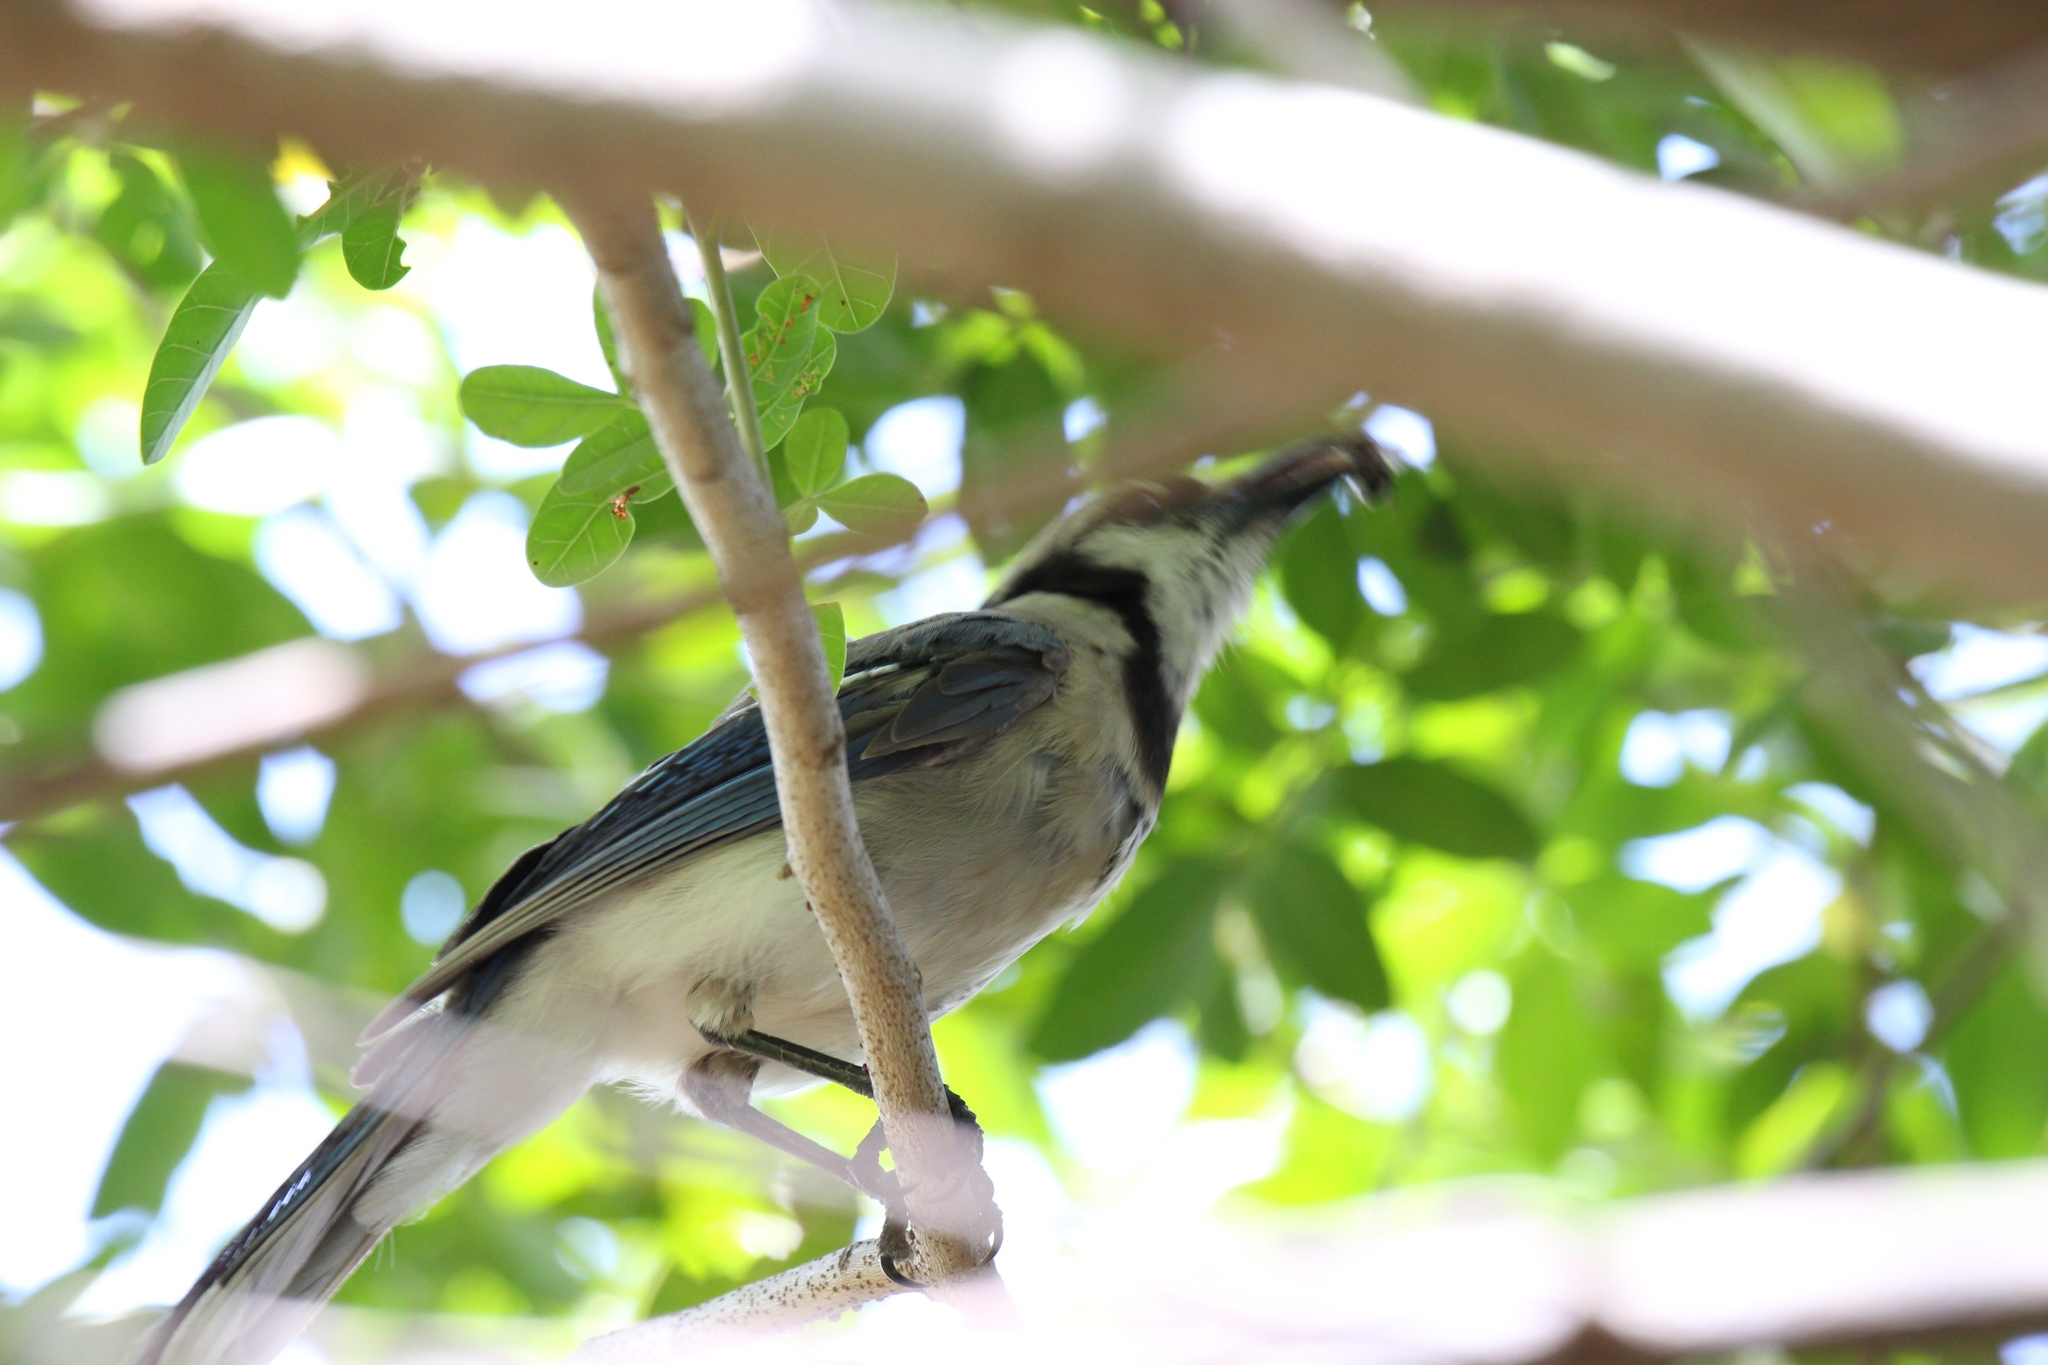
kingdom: Animalia
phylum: Chordata
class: Aves
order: Passeriformes
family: Corvidae
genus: Cyanocitta
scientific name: Cyanocitta cristata
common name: Blue jay
